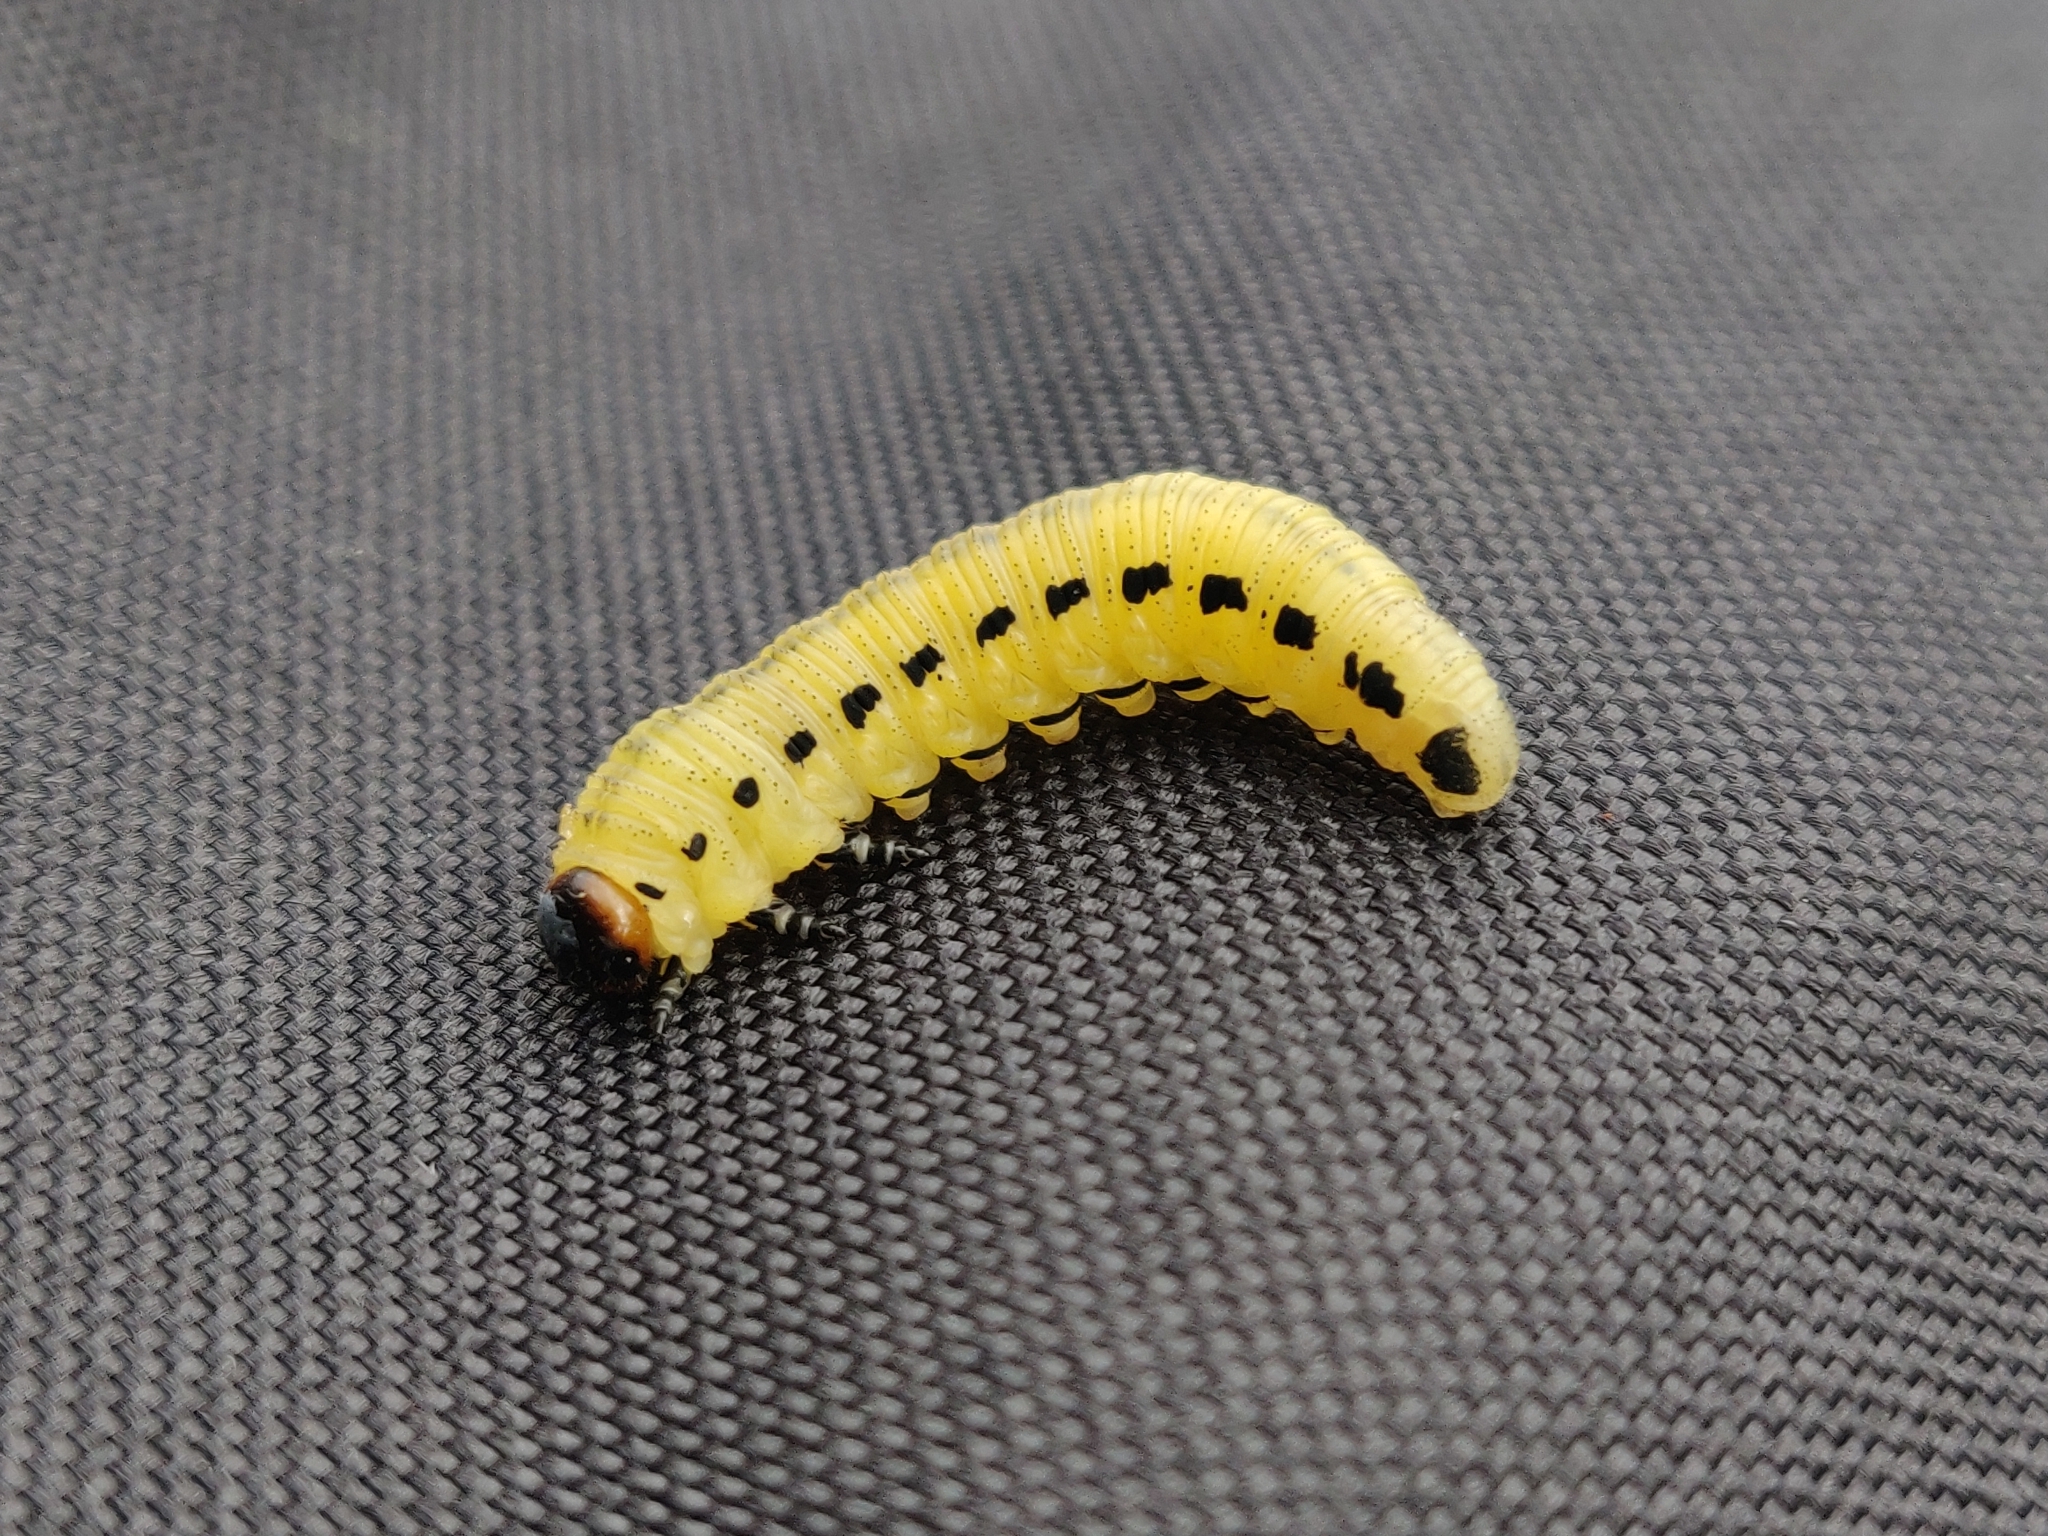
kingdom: Animalia
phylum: Arthropoda
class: Insecta
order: Hymenoptera
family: Diprionidae
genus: Diprion
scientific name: Diprion pini
